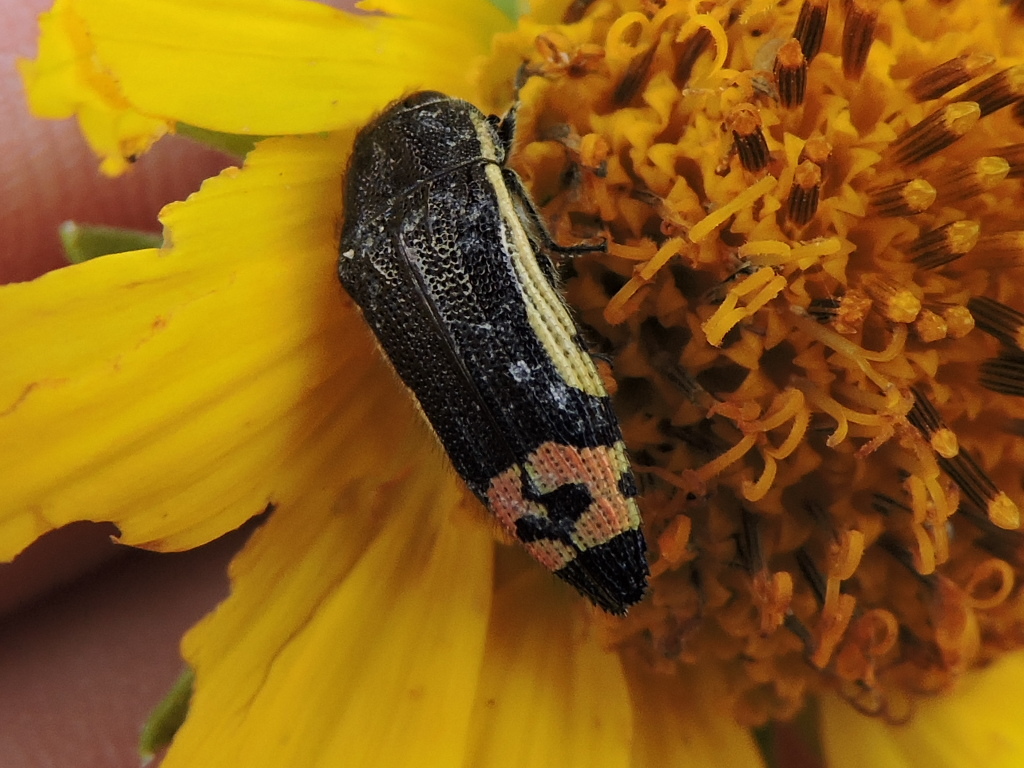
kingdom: Animalia
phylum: Arthropoda
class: Insecta
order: Coleoptera
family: Buprestidae
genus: Acmaeodera
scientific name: Acmaeodera flavomarginata
